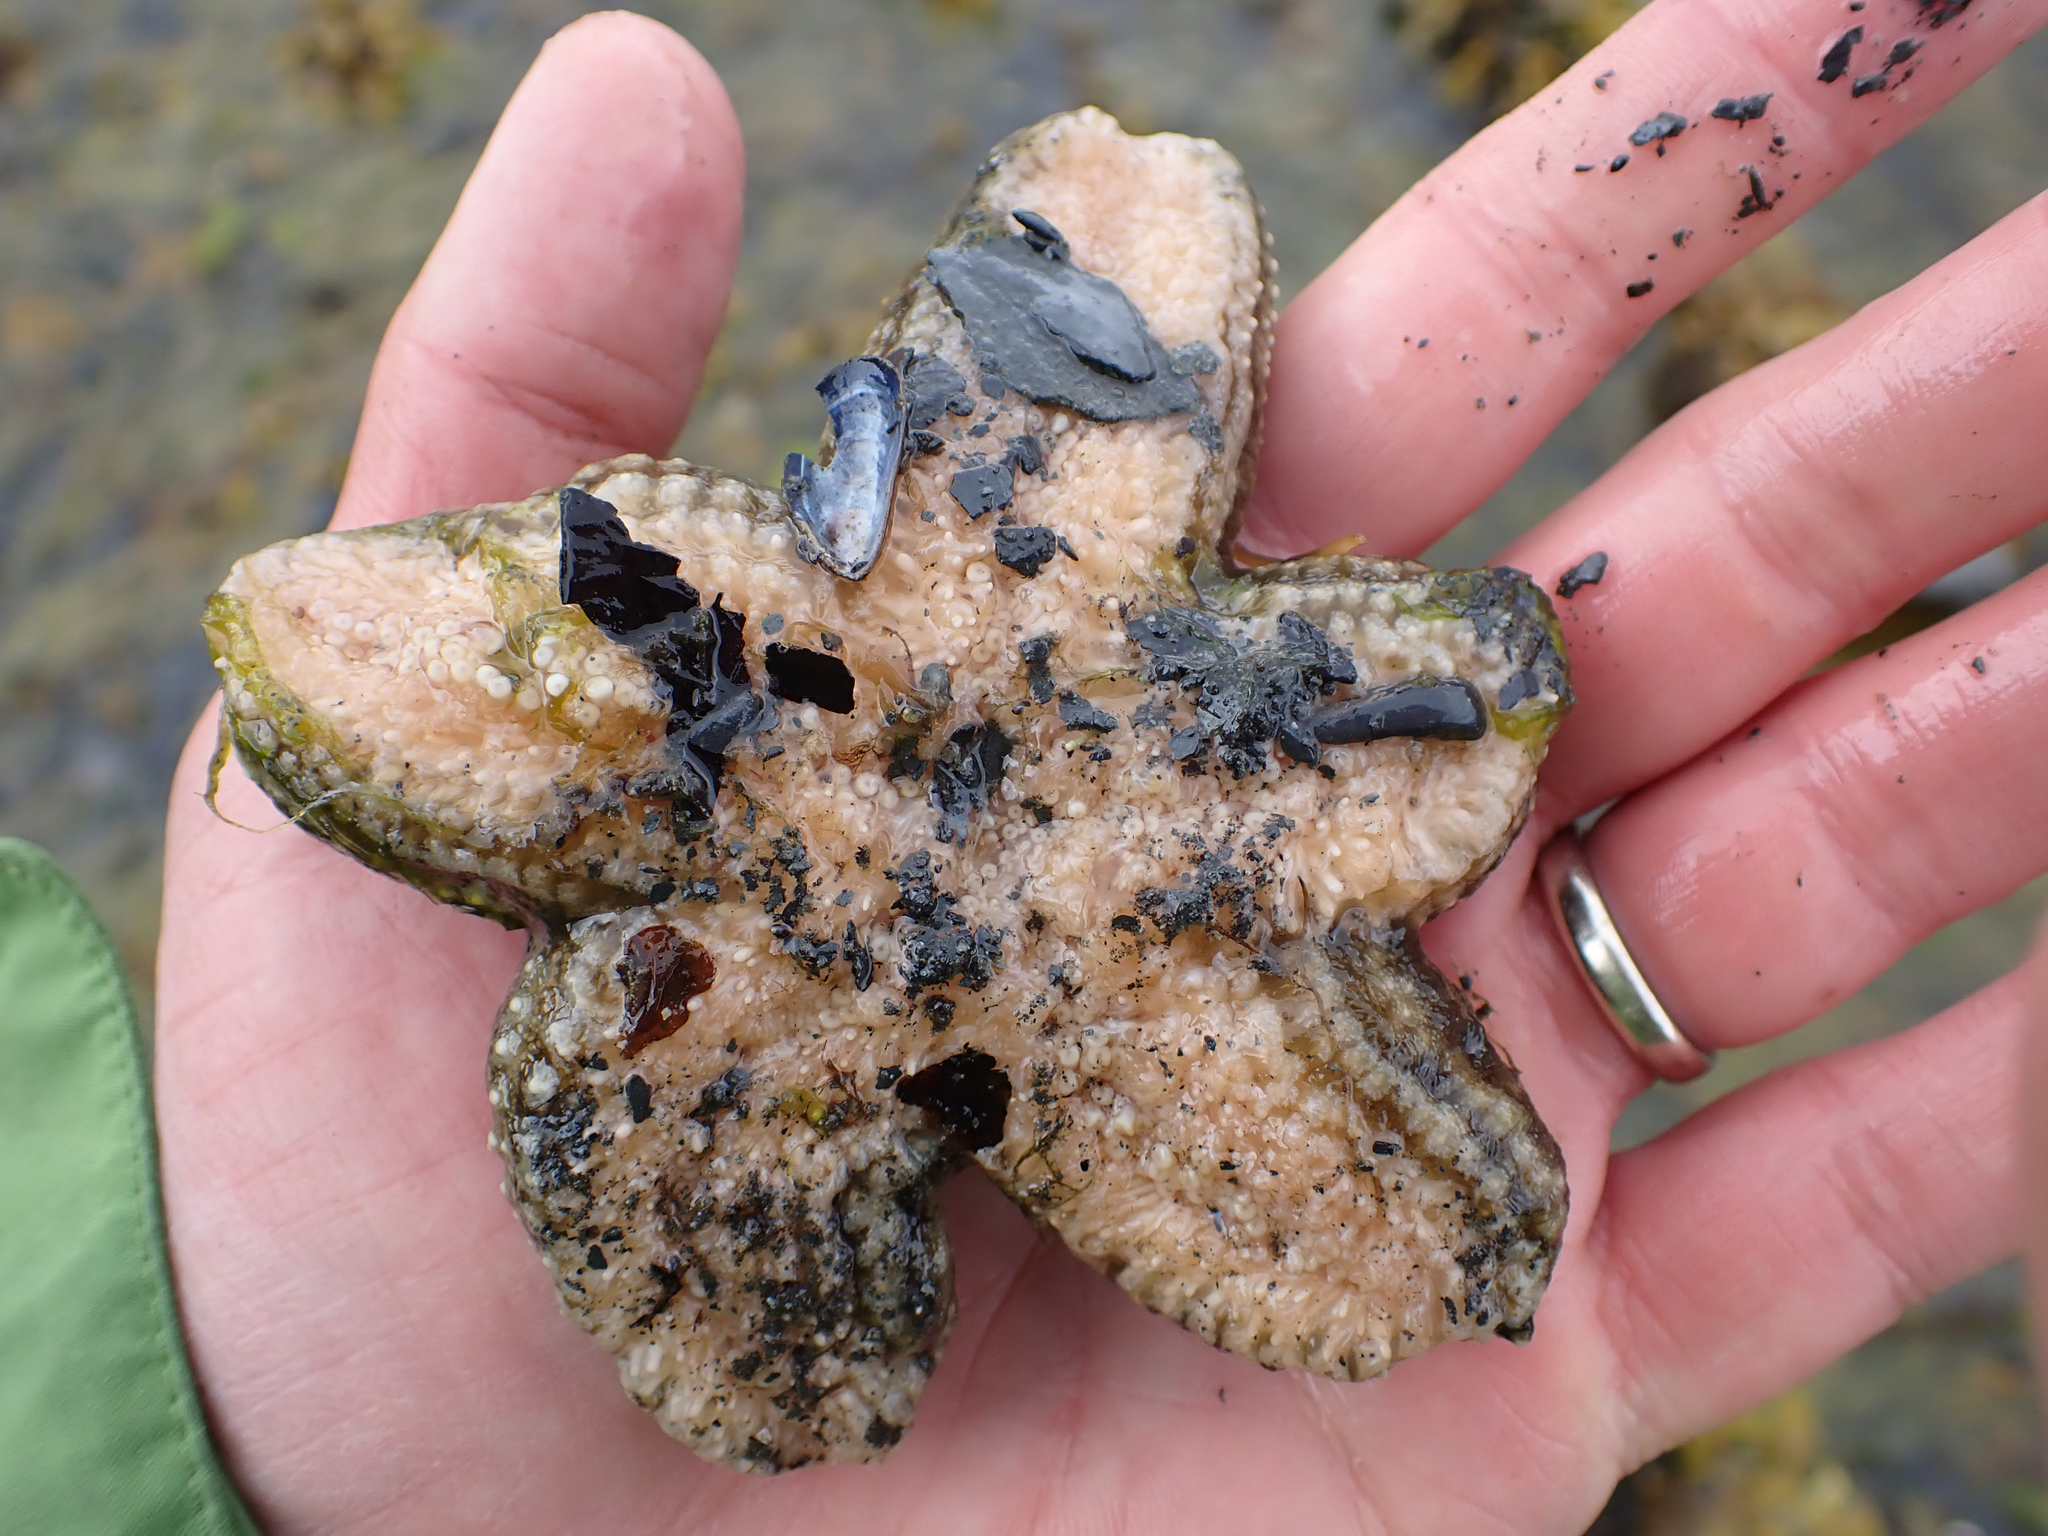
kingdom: Animalia
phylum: Echinodermata
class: Asteroidea
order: Forcipulatida
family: Asteriidae
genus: Evasterias
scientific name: Evasterias troschelii
